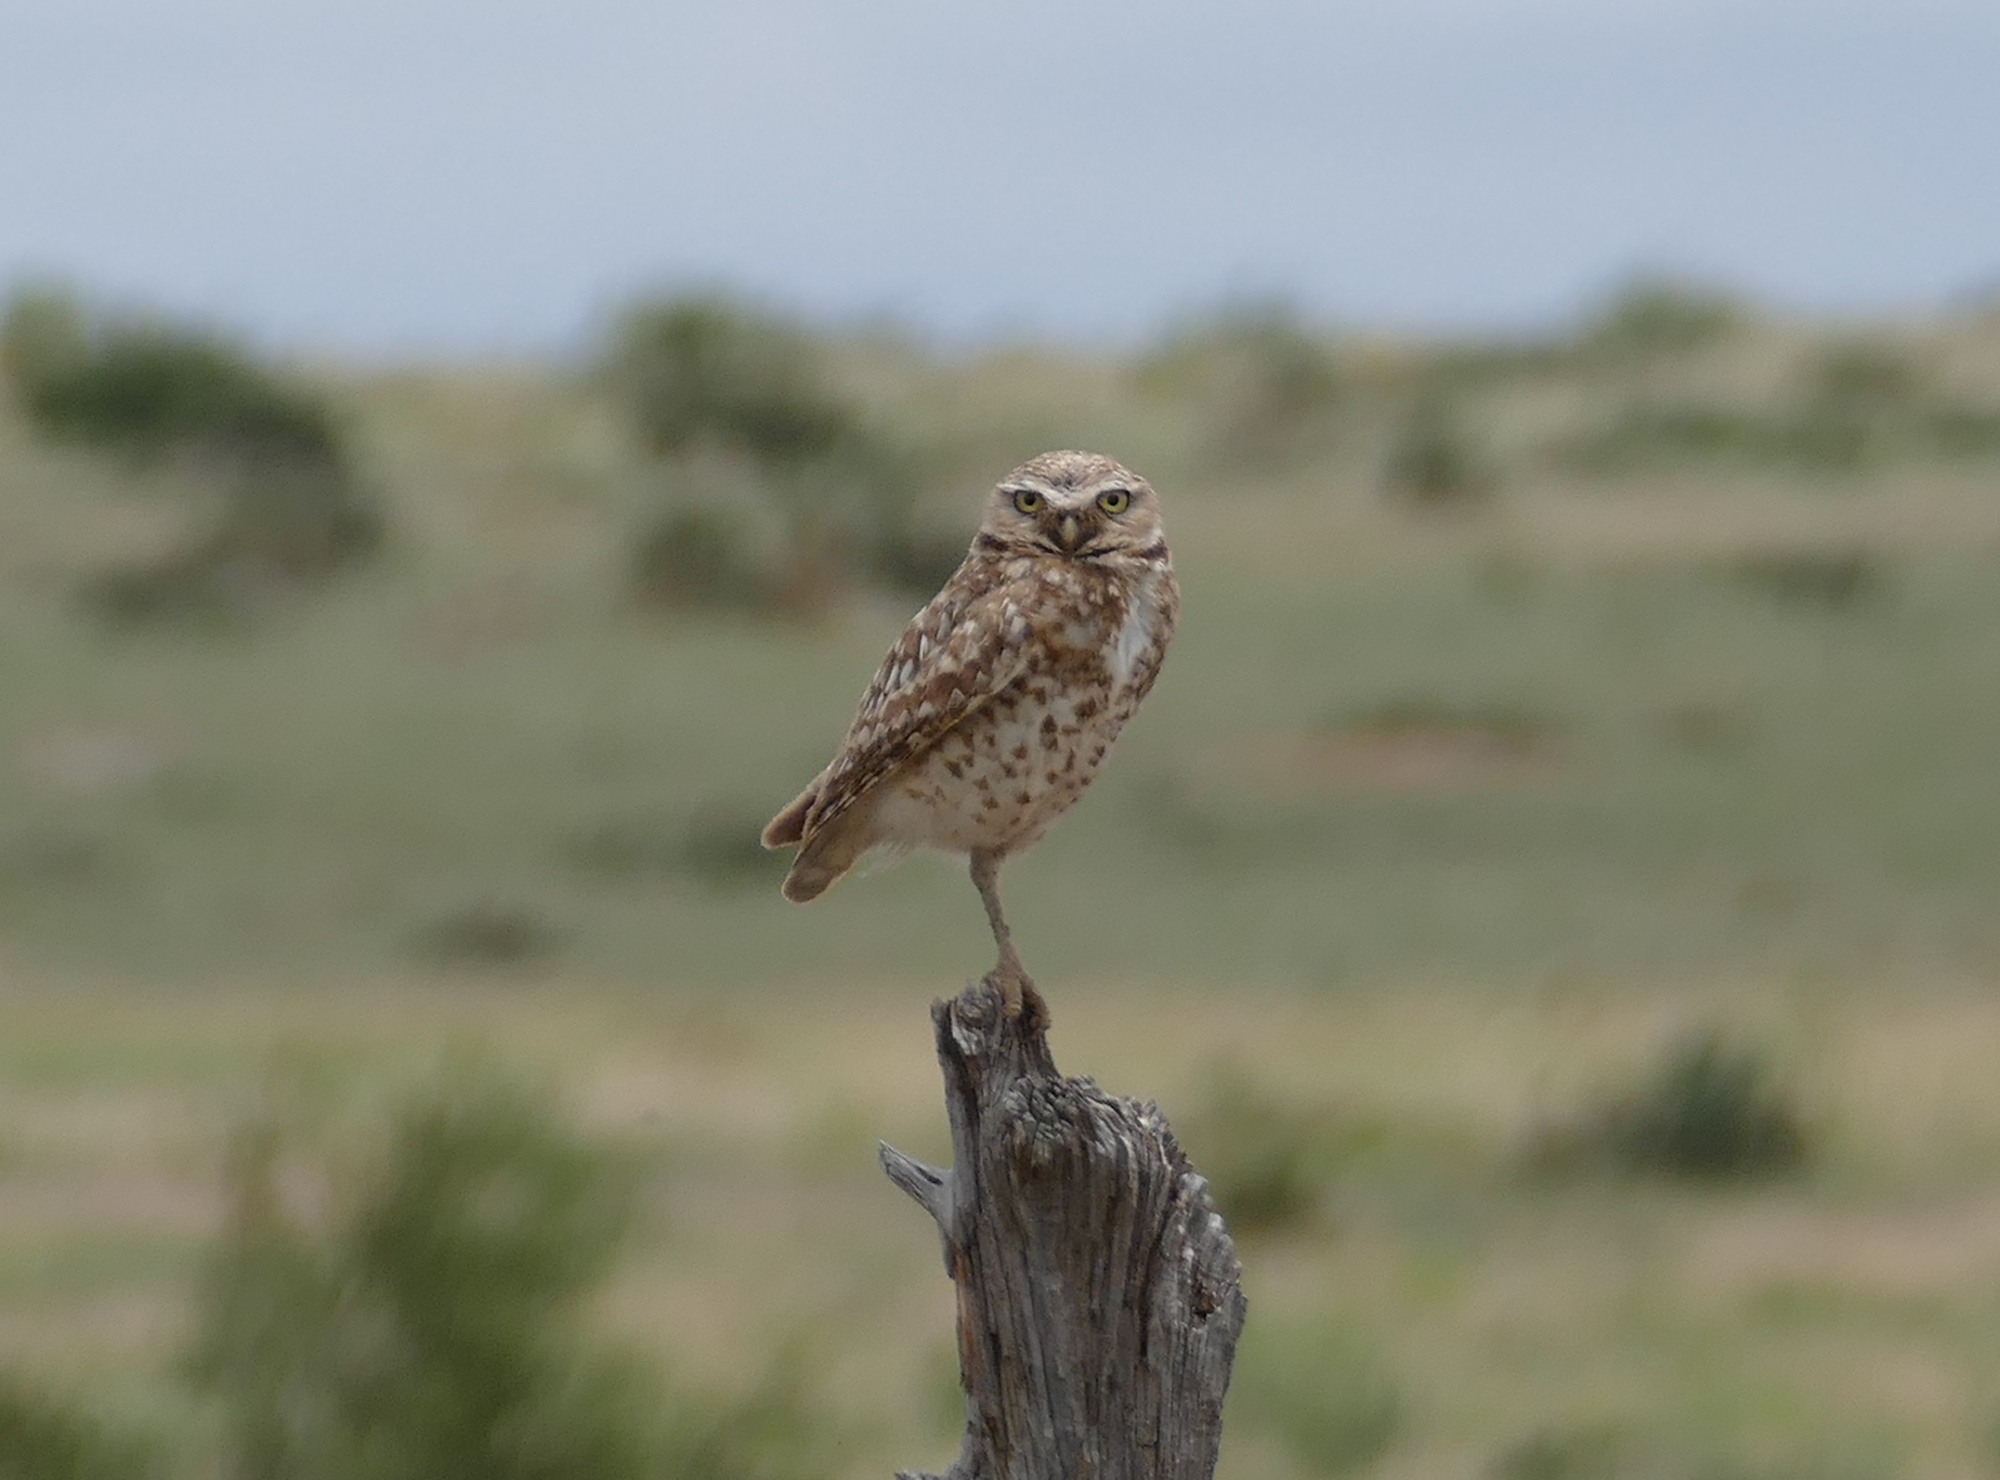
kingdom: Animalia
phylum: Chordata
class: Aves
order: Strigiformes
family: Strigidae
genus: Athene
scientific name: Athene cunicularia
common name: Burrowing owl
